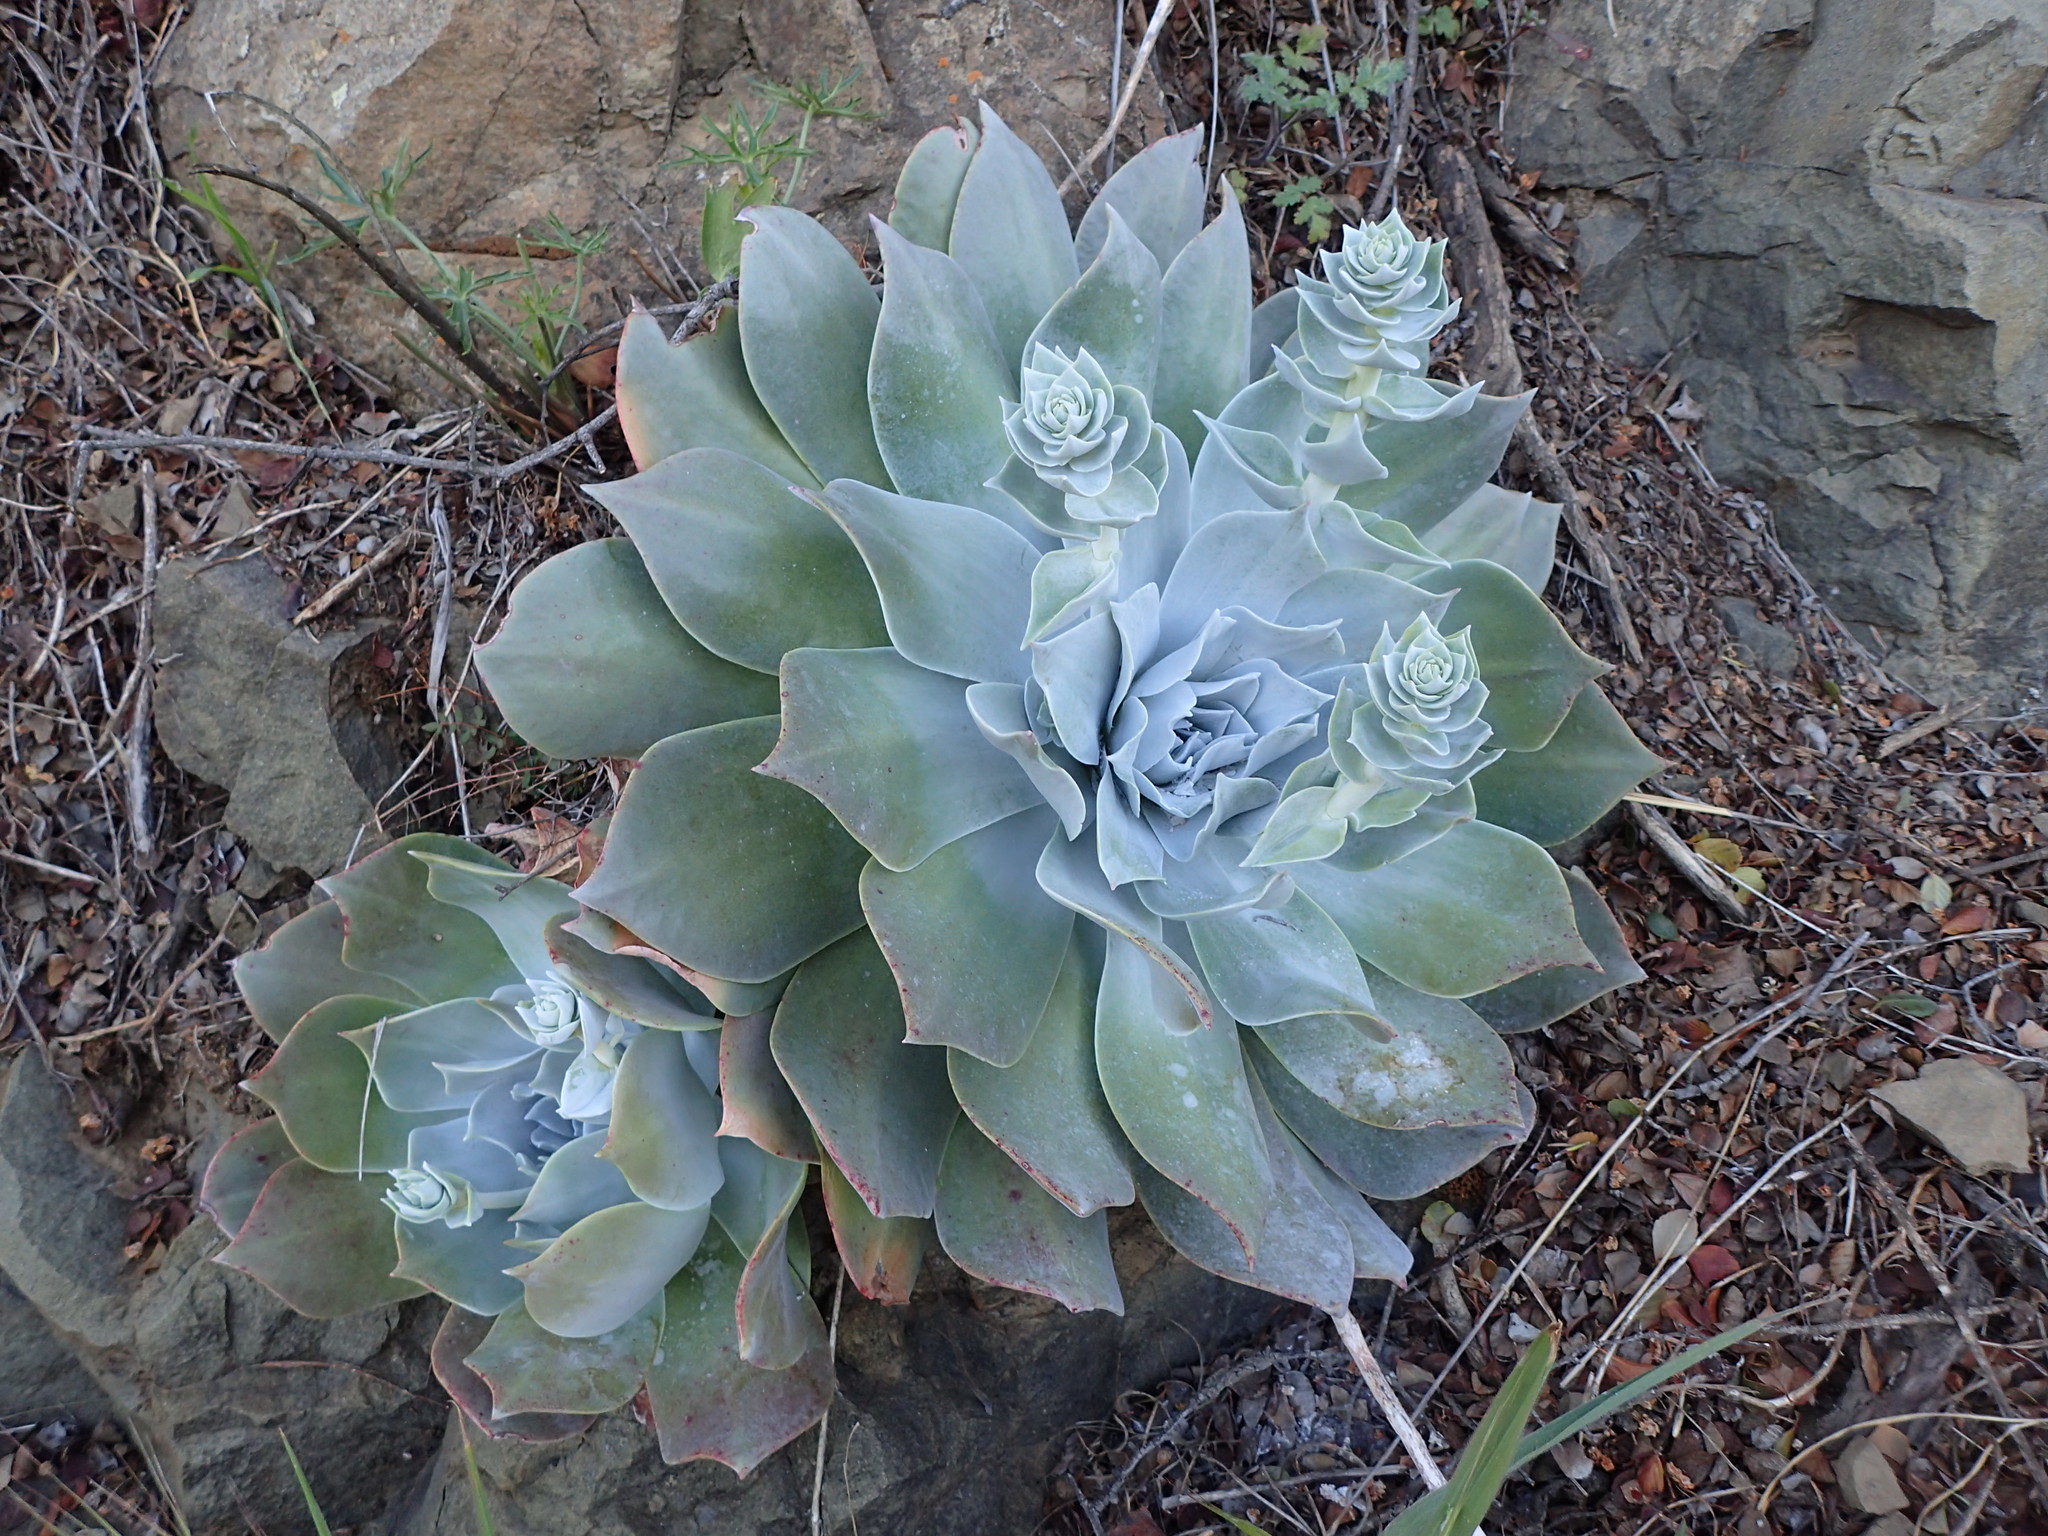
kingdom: Plantae
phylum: Tracheophyta
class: Magnoliopsida
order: Saxifragales
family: Crassulaceae
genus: Dudleya
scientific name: Dudleya pulverulenta
